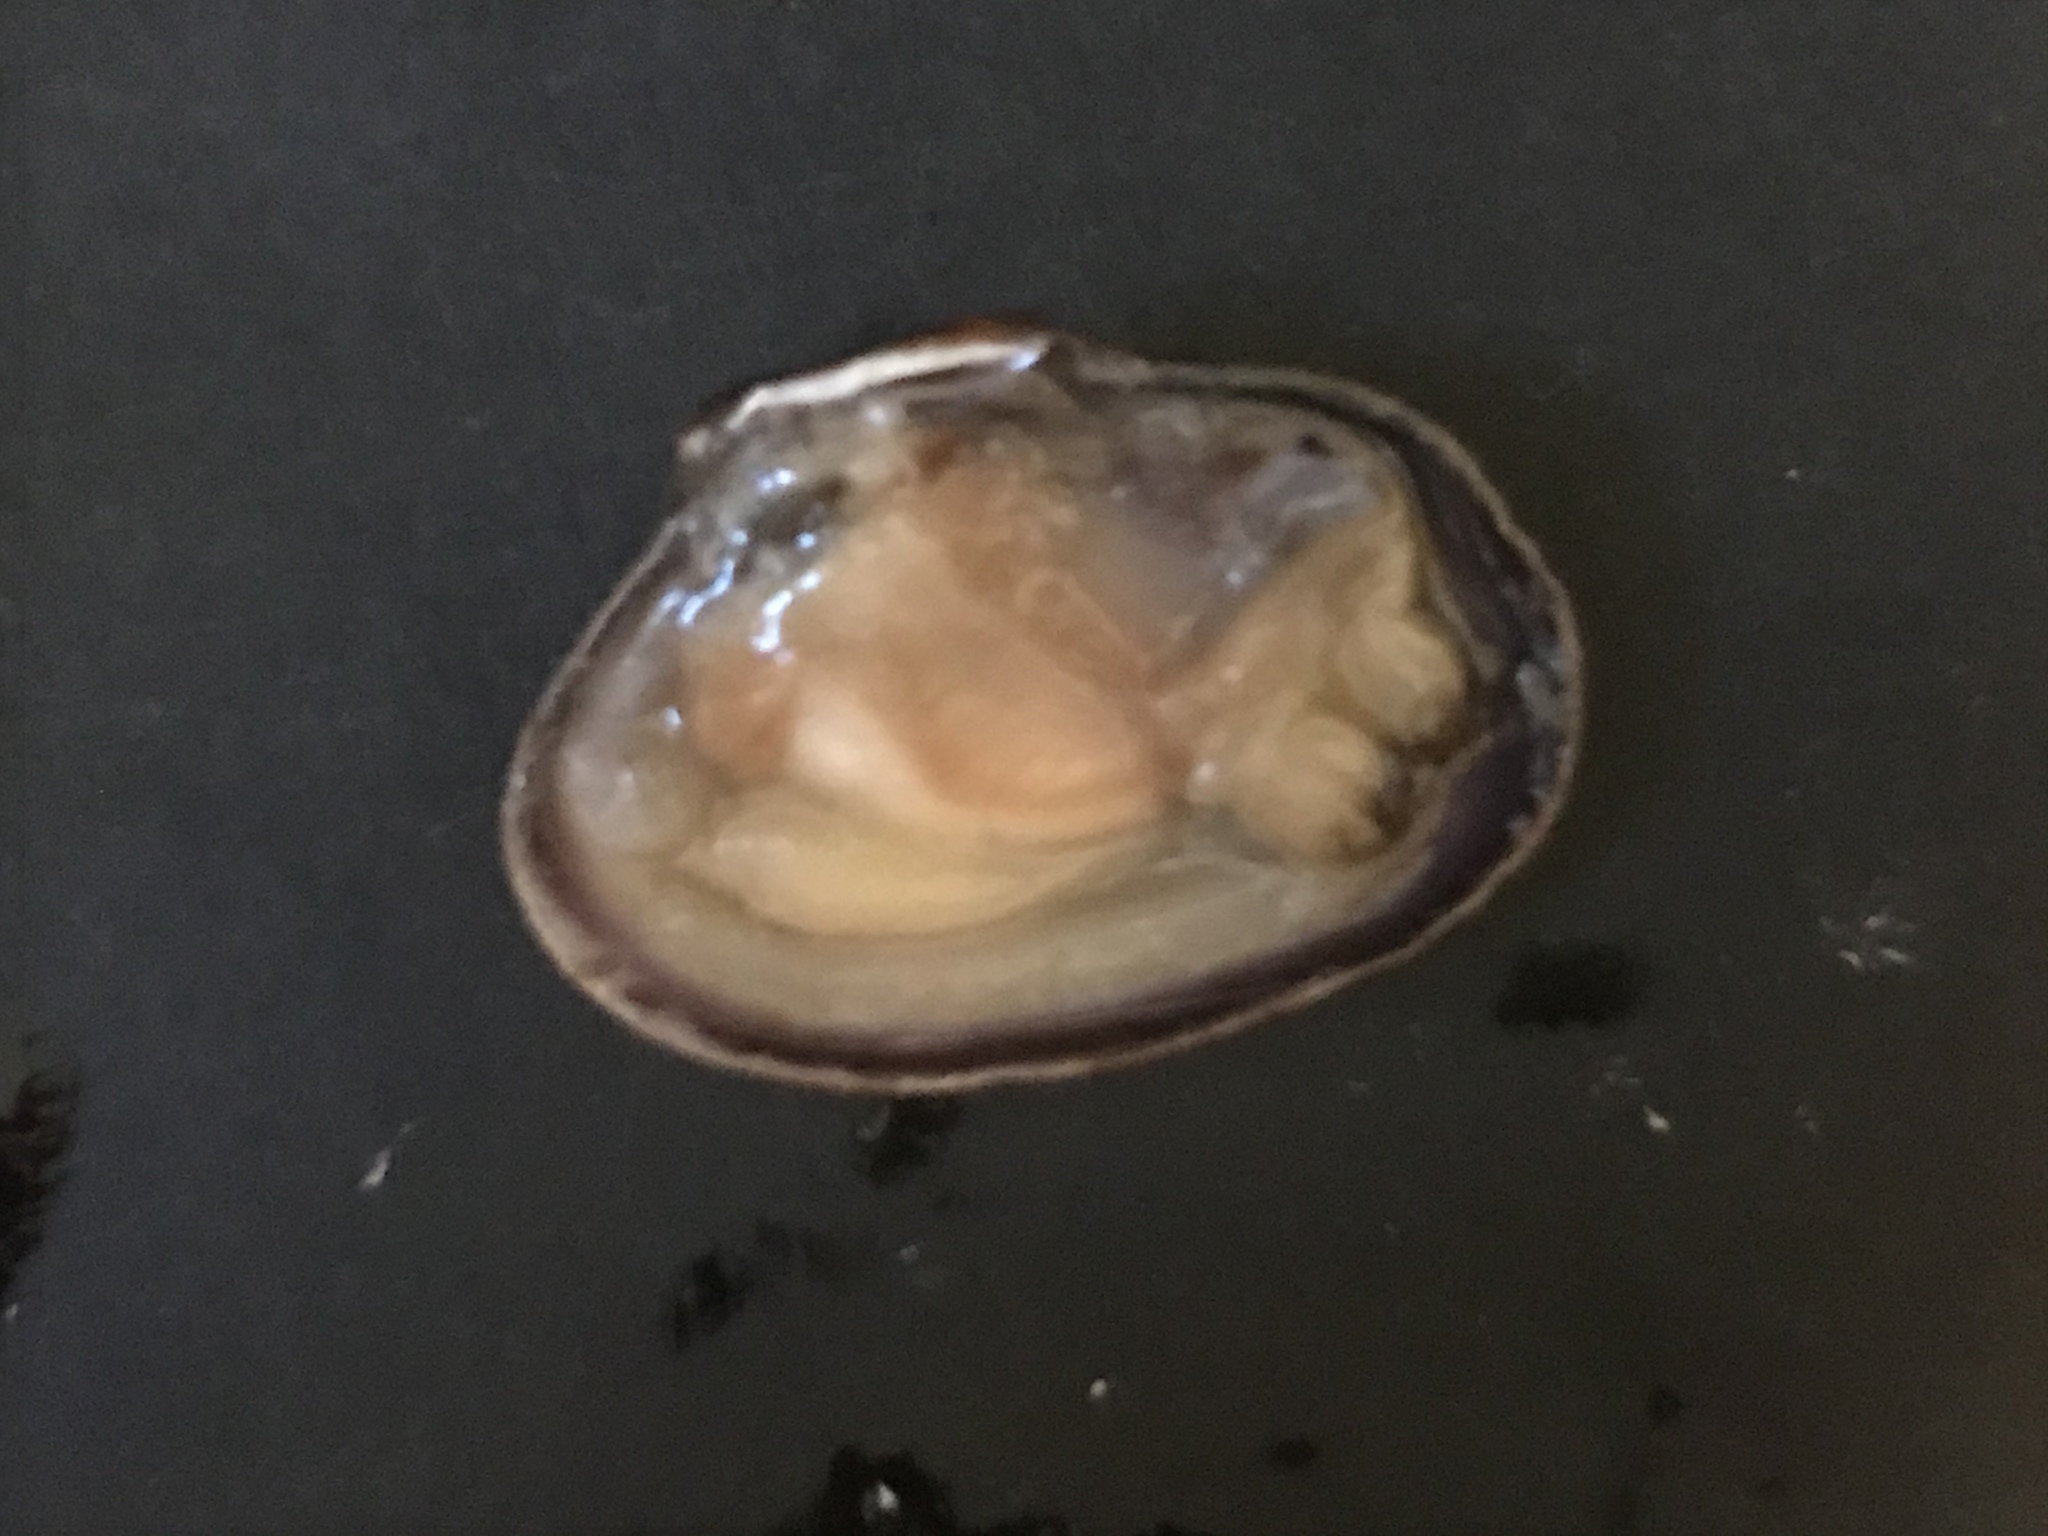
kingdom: Animalia
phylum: Mollusca
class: Bivalvia
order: Venerida
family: Veneridae
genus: Ruditapes
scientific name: Ruditapes philippinarum
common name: Manila clam
